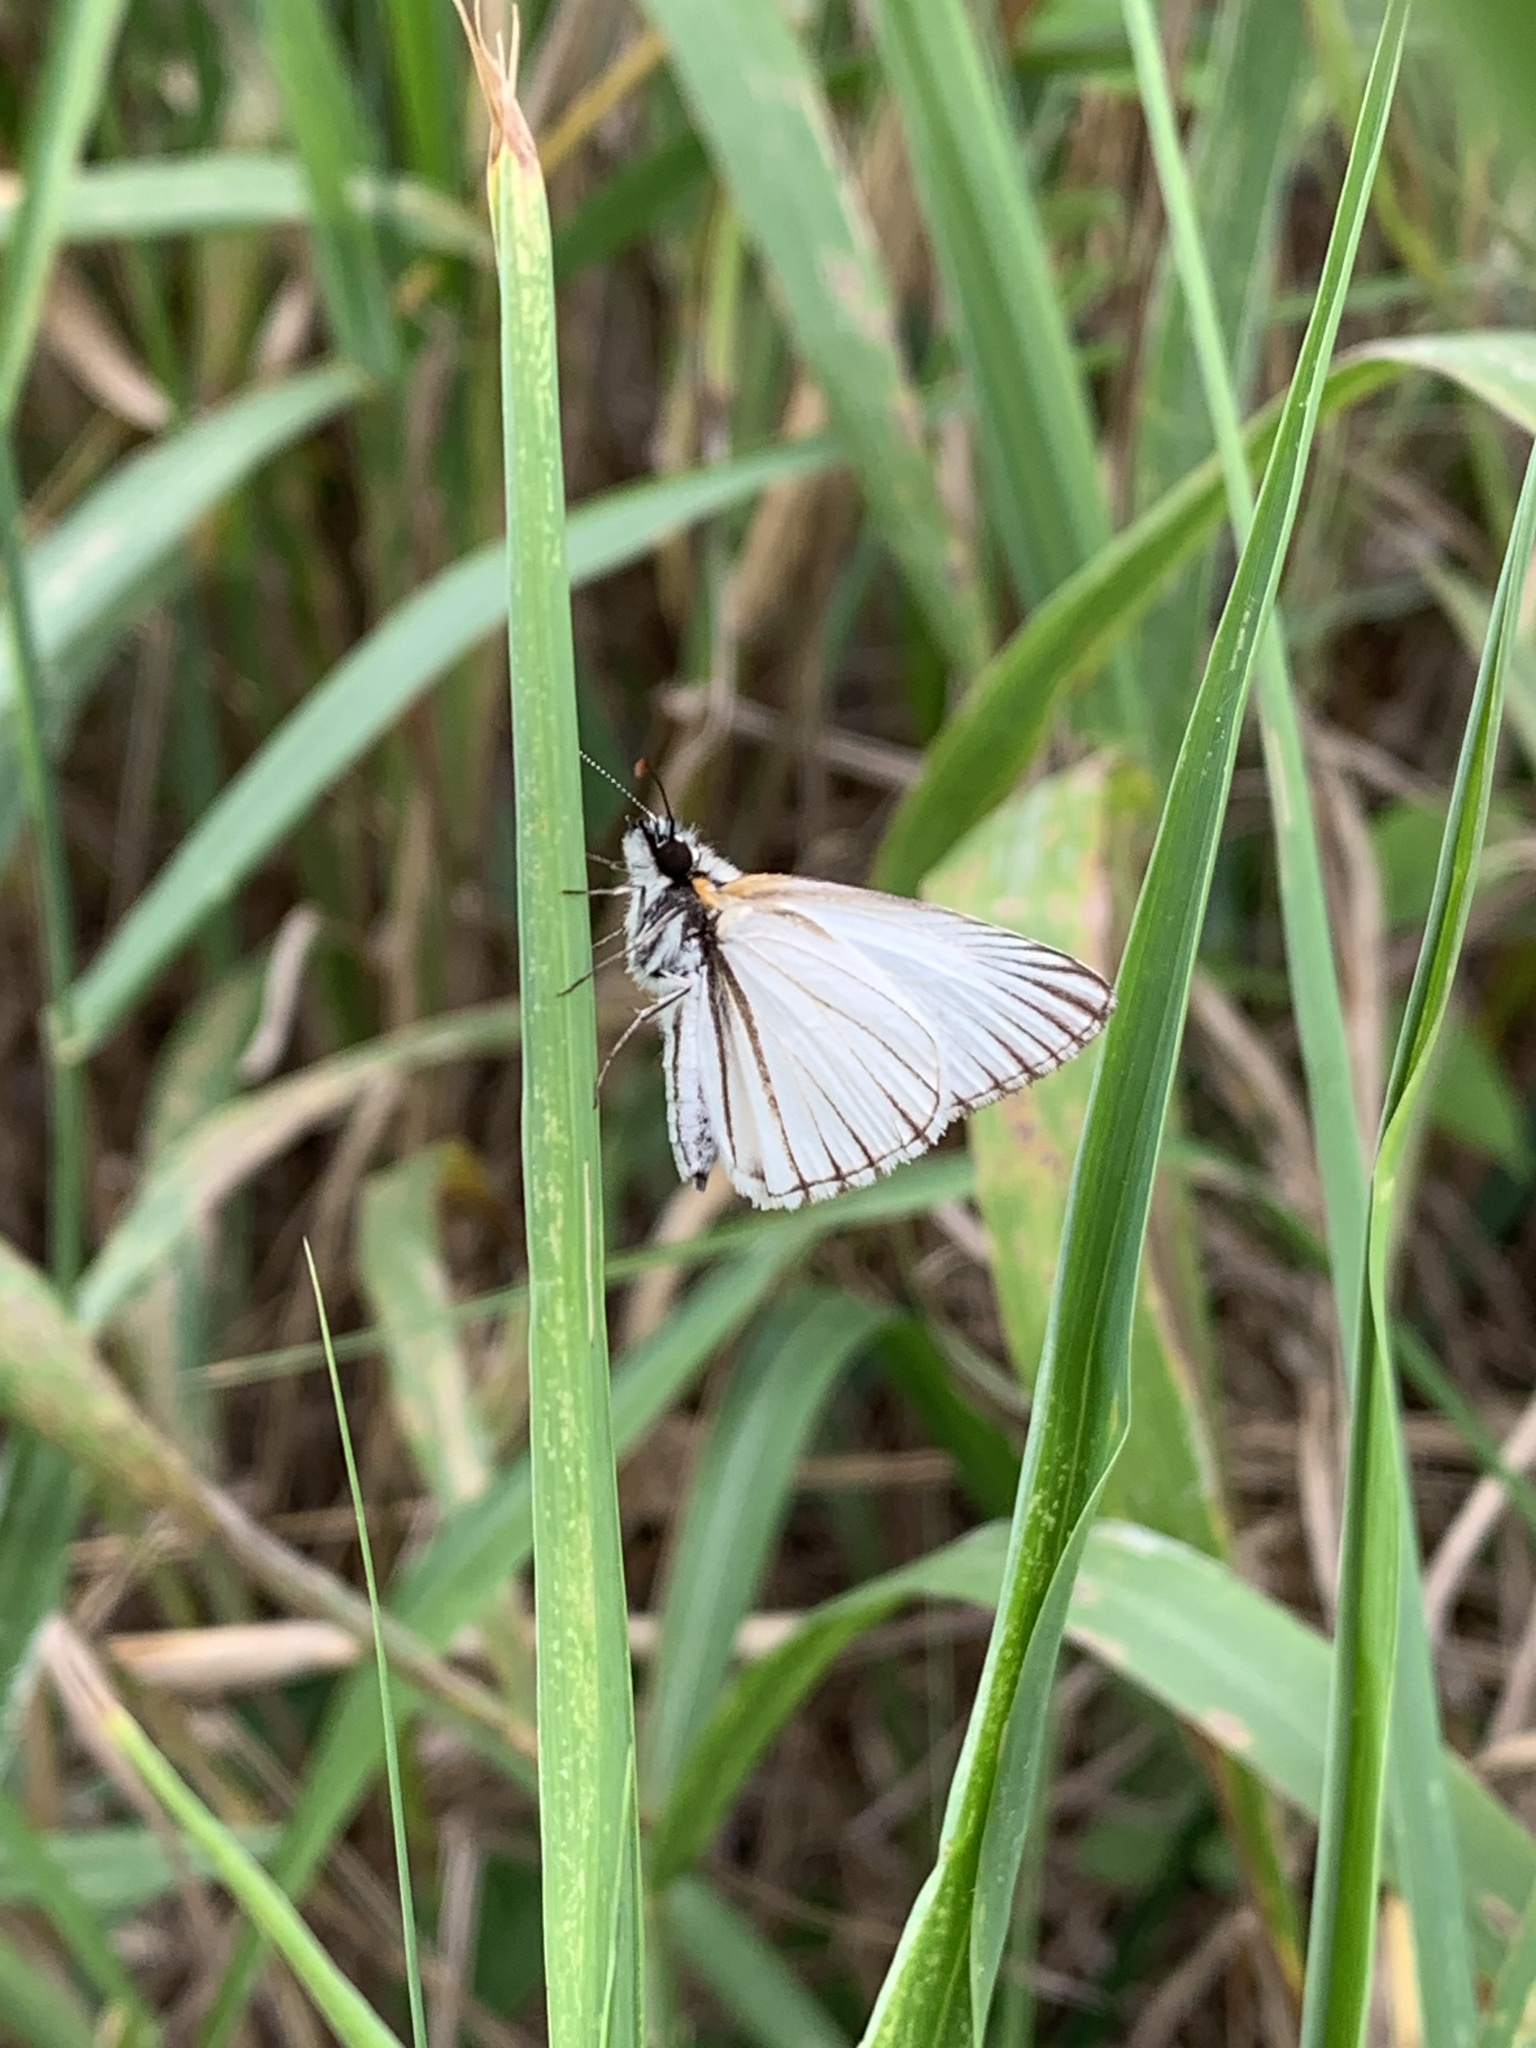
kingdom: Animalia
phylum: Arthropoda
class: Insecta
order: Lepidoptera
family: Hesperiidae
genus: Heliopetes
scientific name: Heliopetes arsalte
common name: Veined white-skipper
